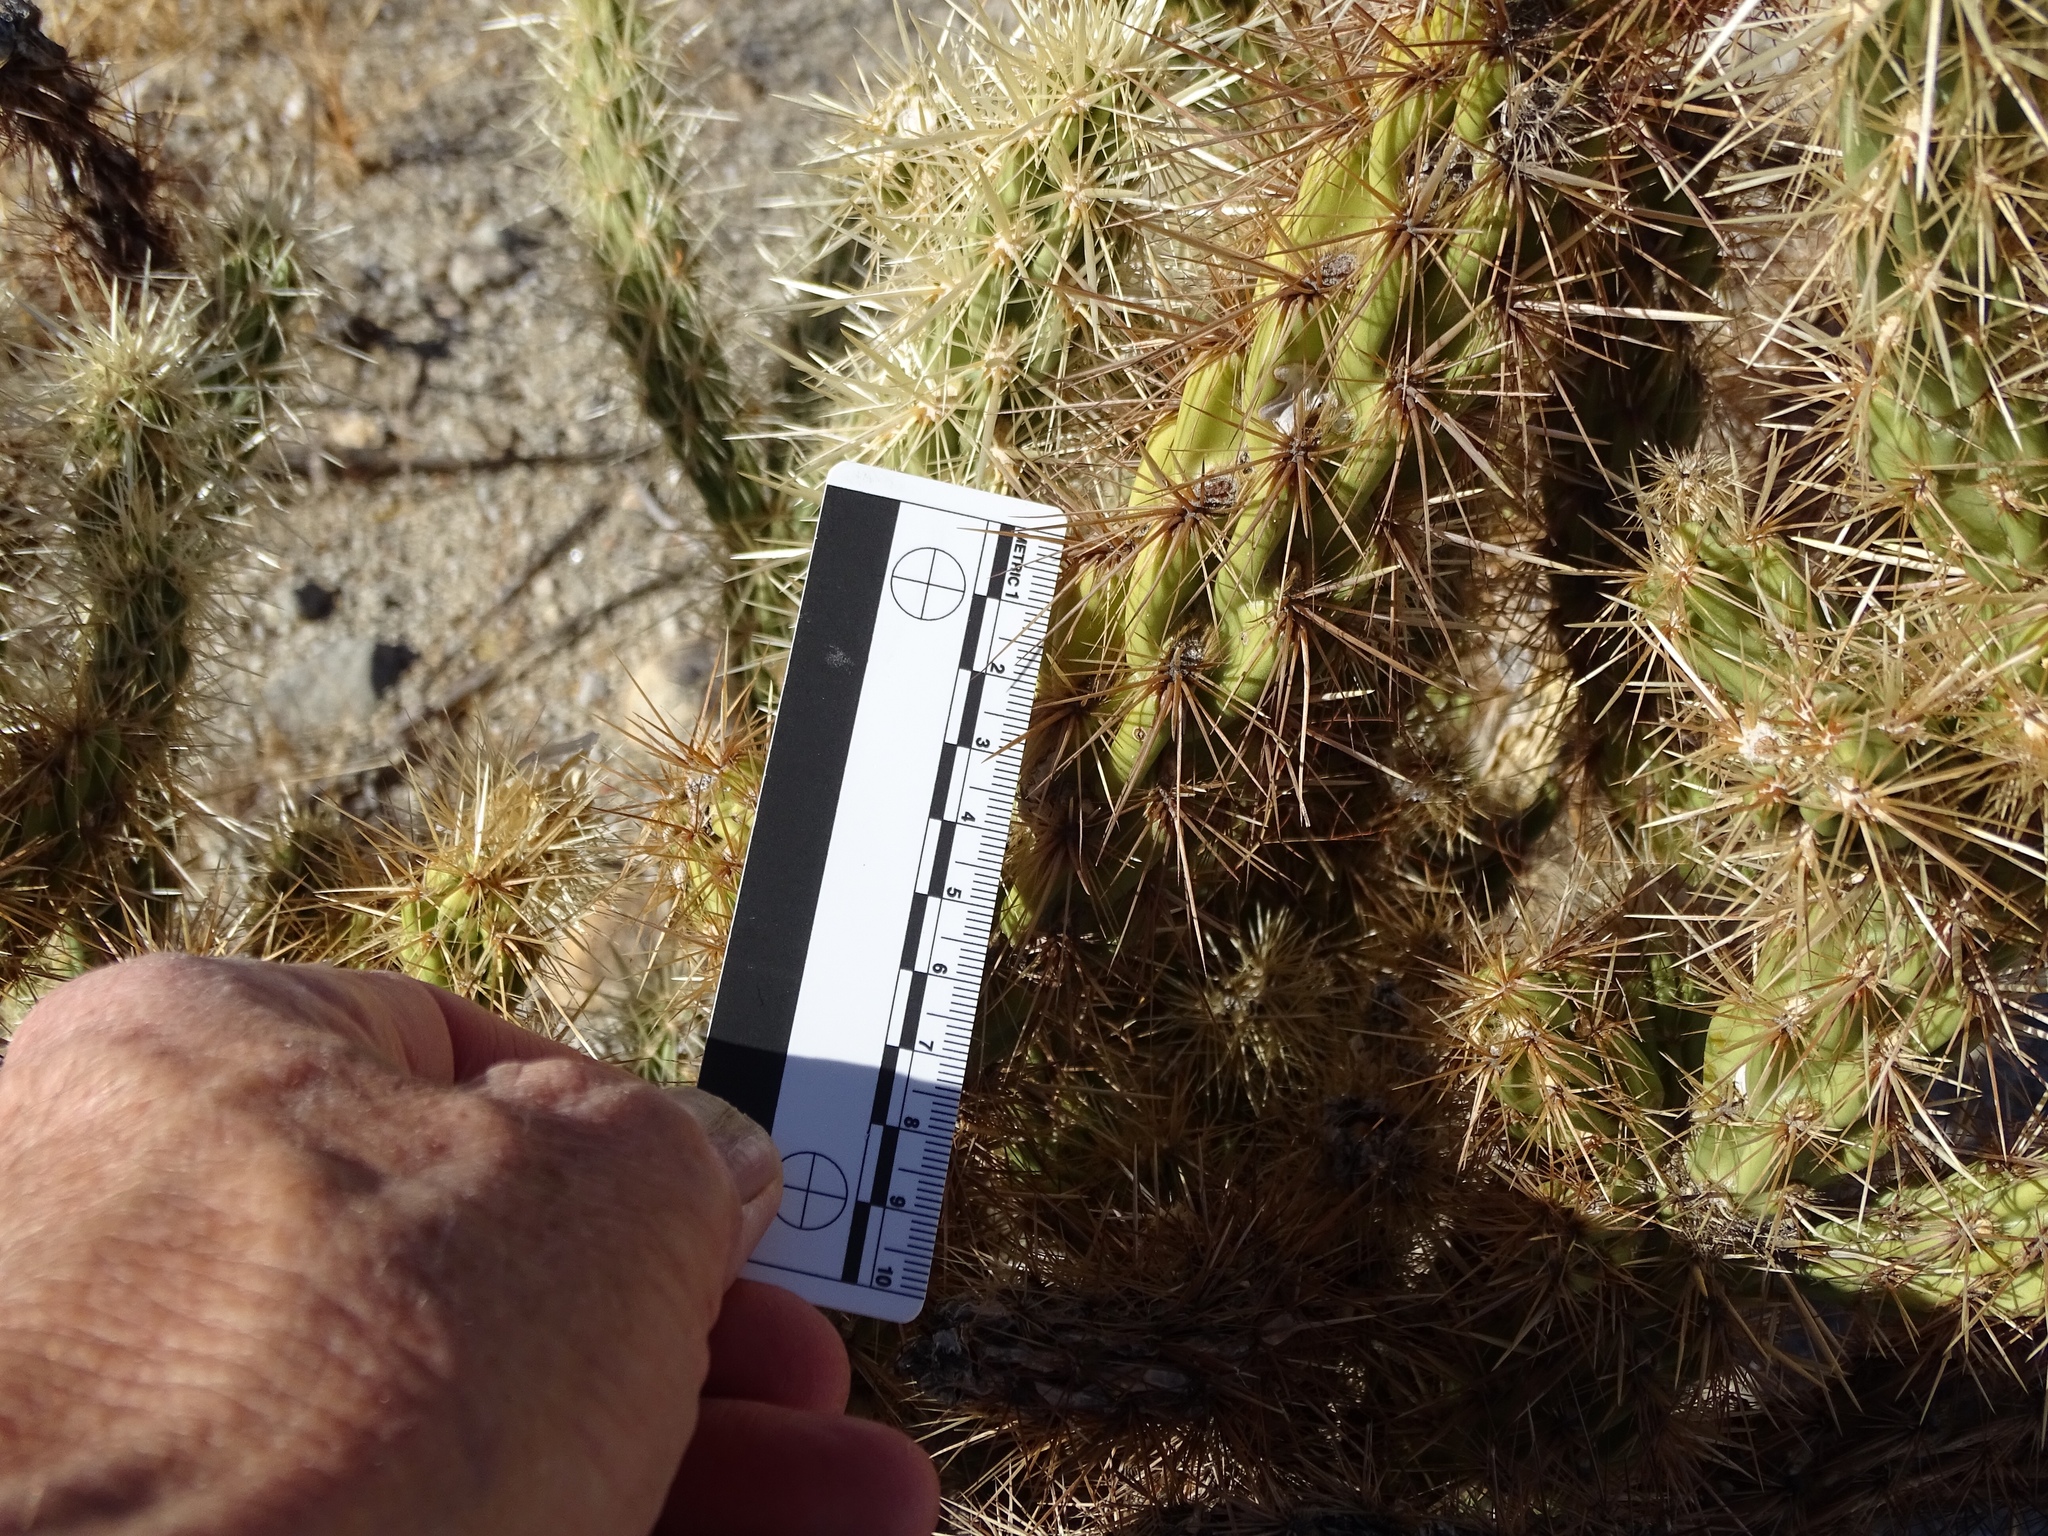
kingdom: Plantae
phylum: Tracheophyta
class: Magnoliopsida
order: Caryophyllales
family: Cactaceae
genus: Cylindropuntia
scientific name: Cylindropuntia ganderi
